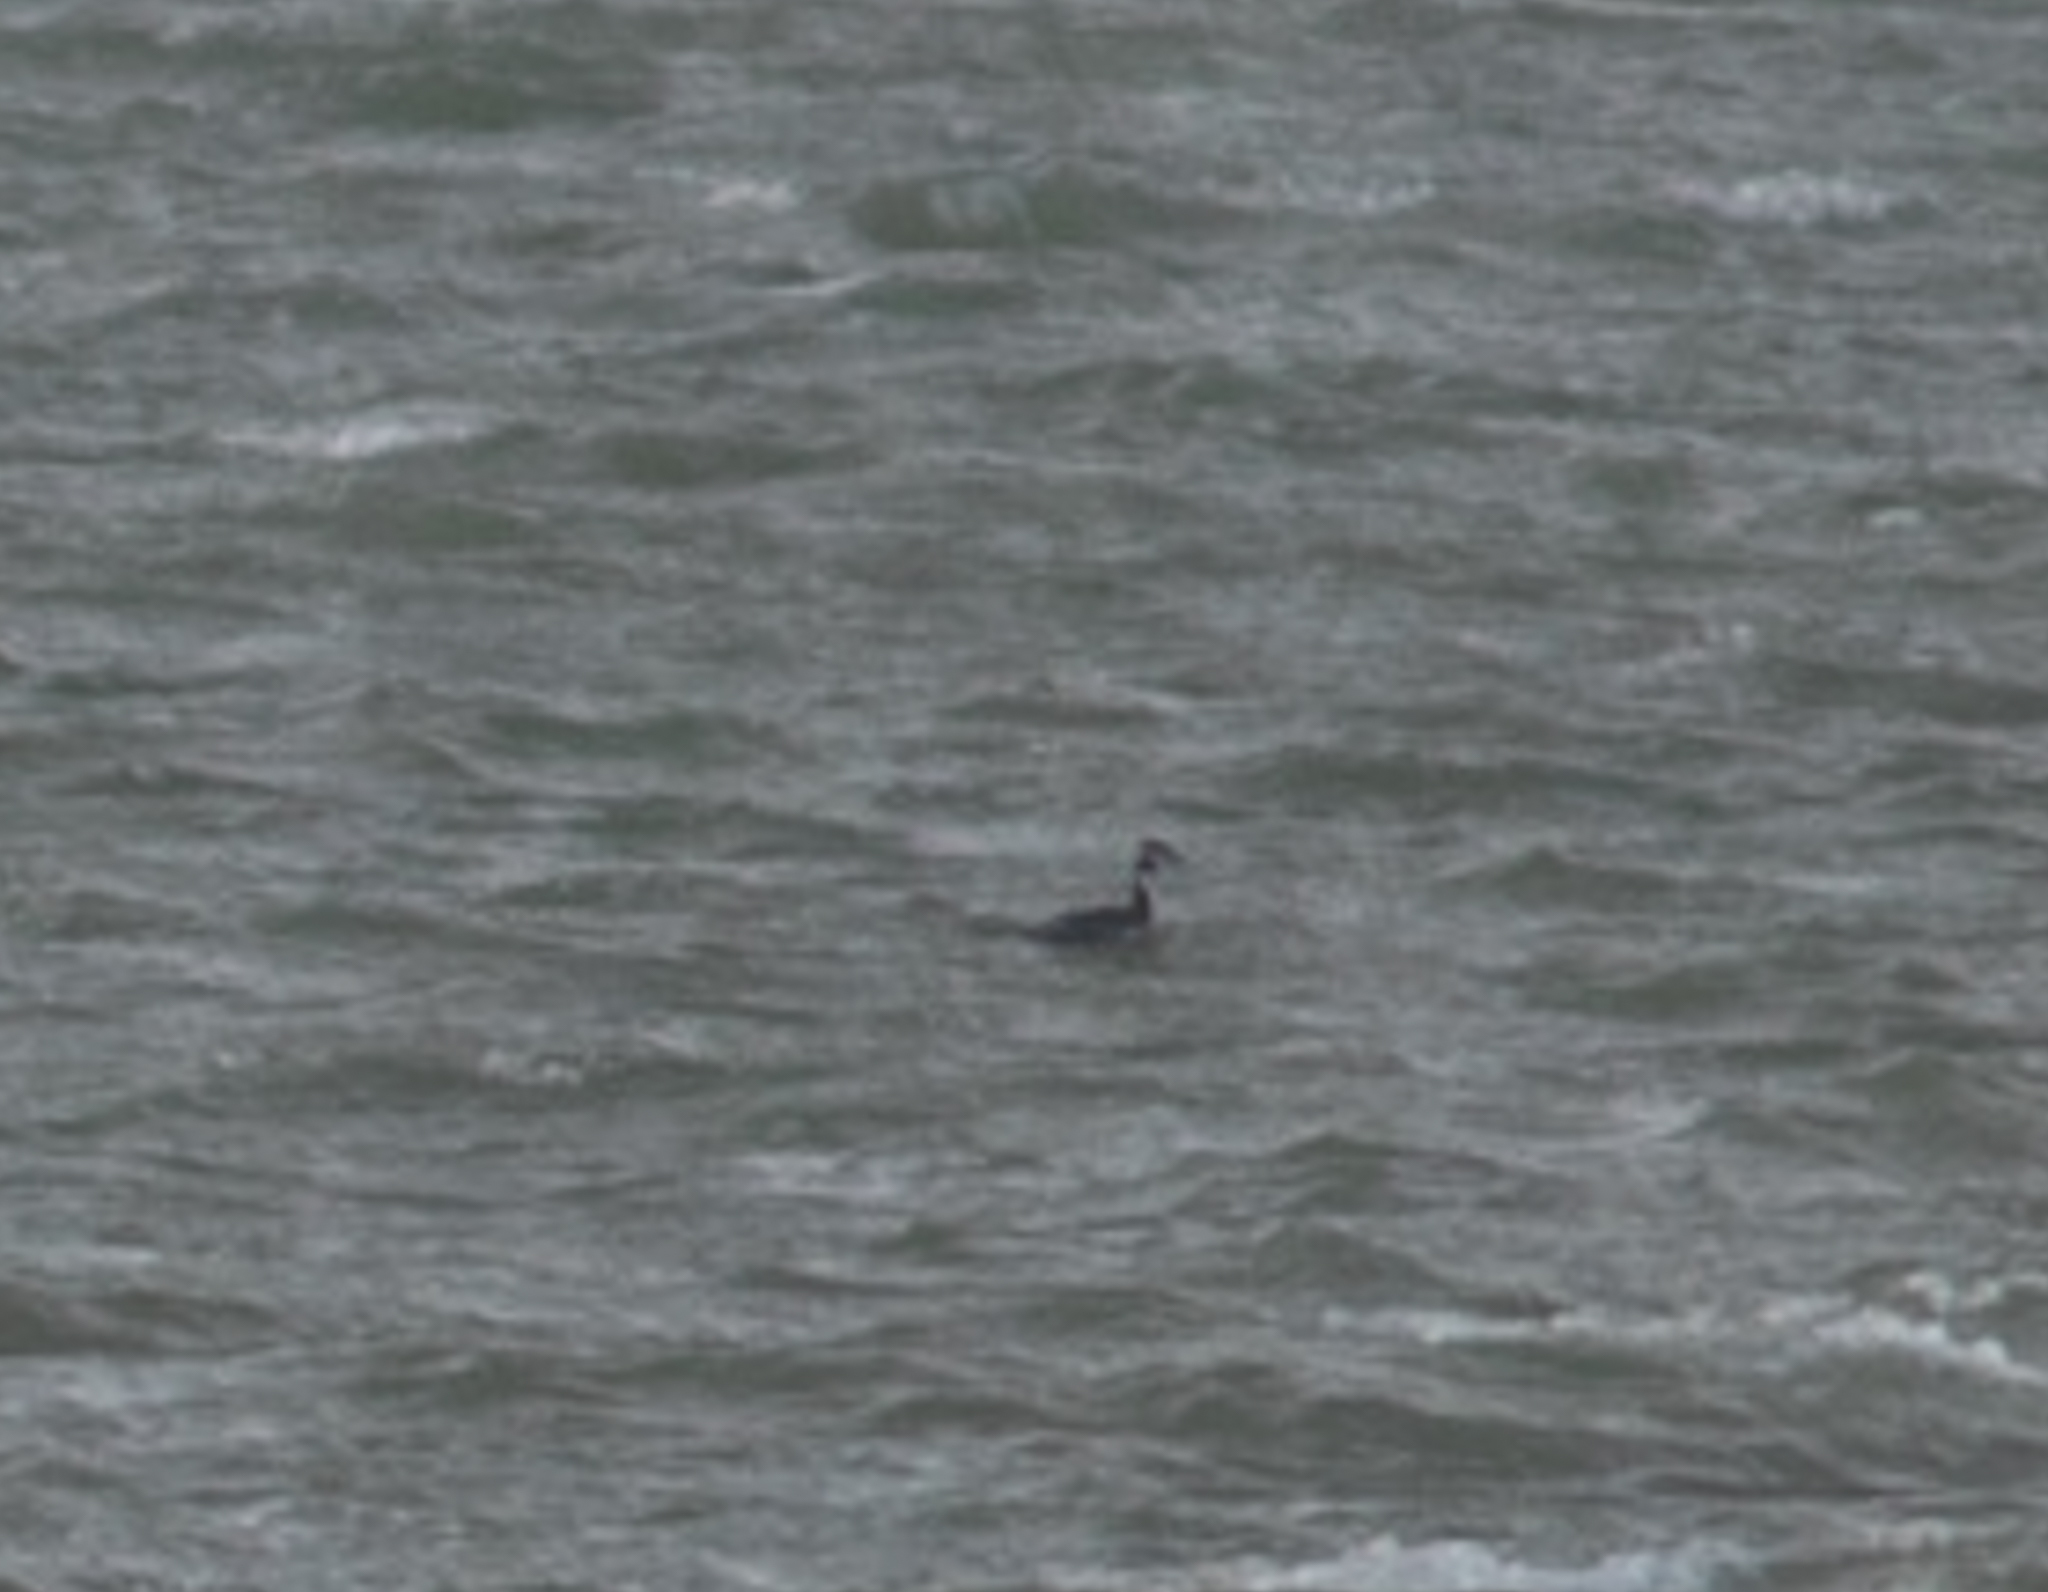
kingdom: Animalia
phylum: Chordata
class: Aves
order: Podicipediformes
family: Podicipedidae
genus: Podiceps
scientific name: Podiceps cristatus
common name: Great crested grebe
